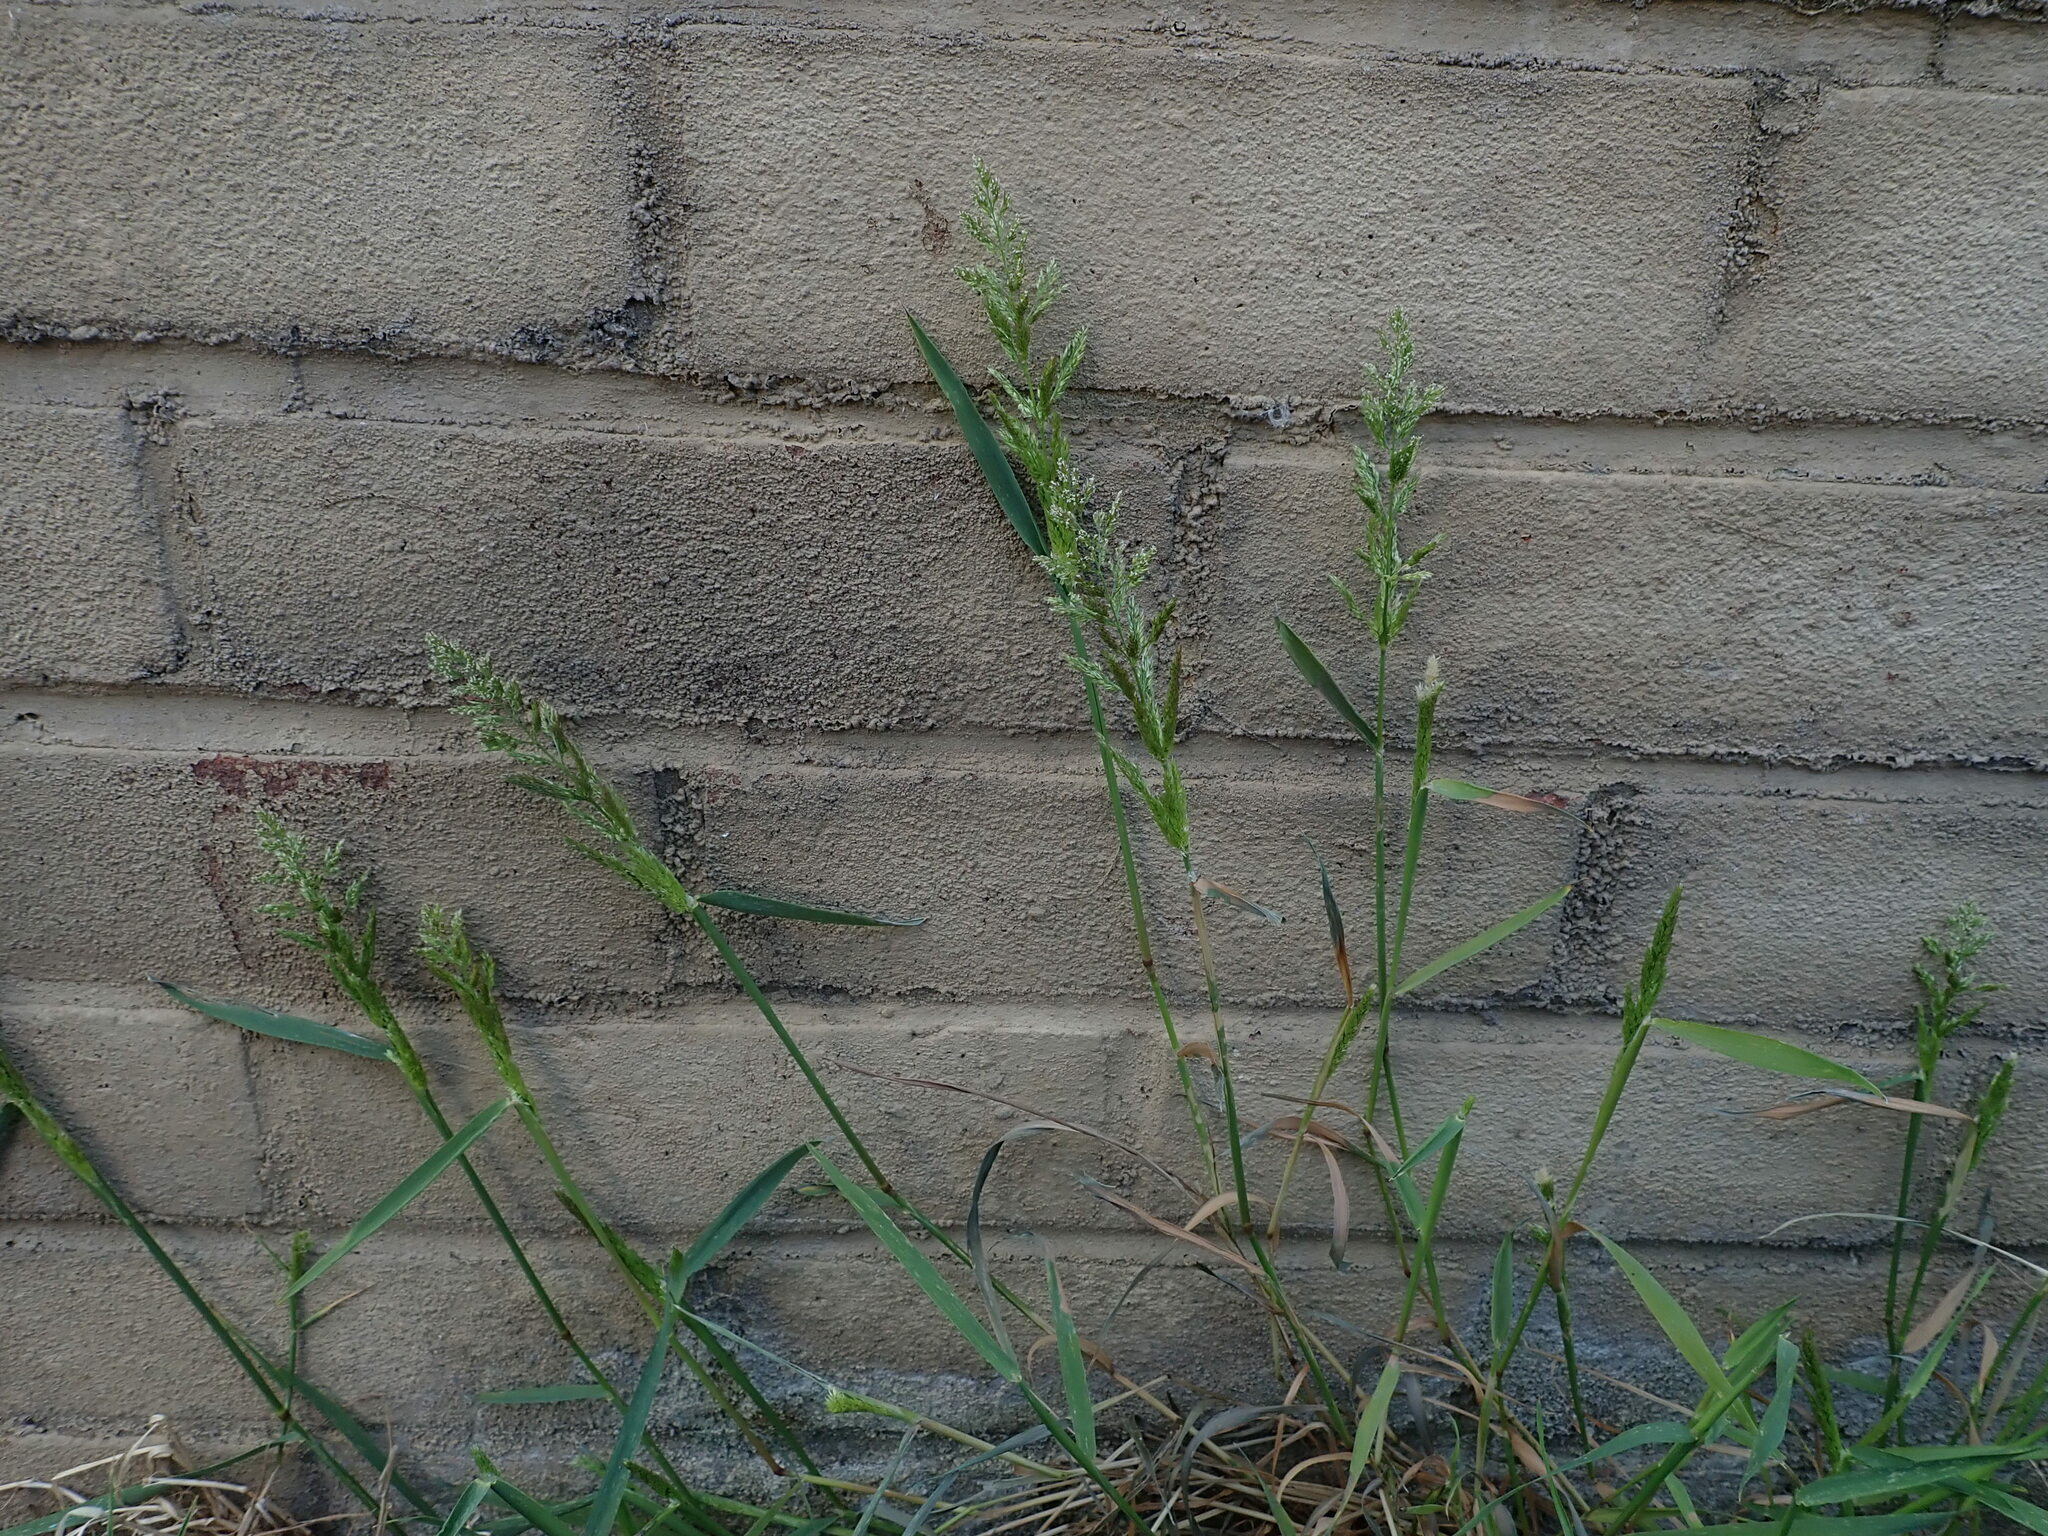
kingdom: Plantae
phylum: Tracheophyta
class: Liliopsida
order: Poales
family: Poaceae
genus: Polypogon
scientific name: Polypogon viridis
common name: Water bent
